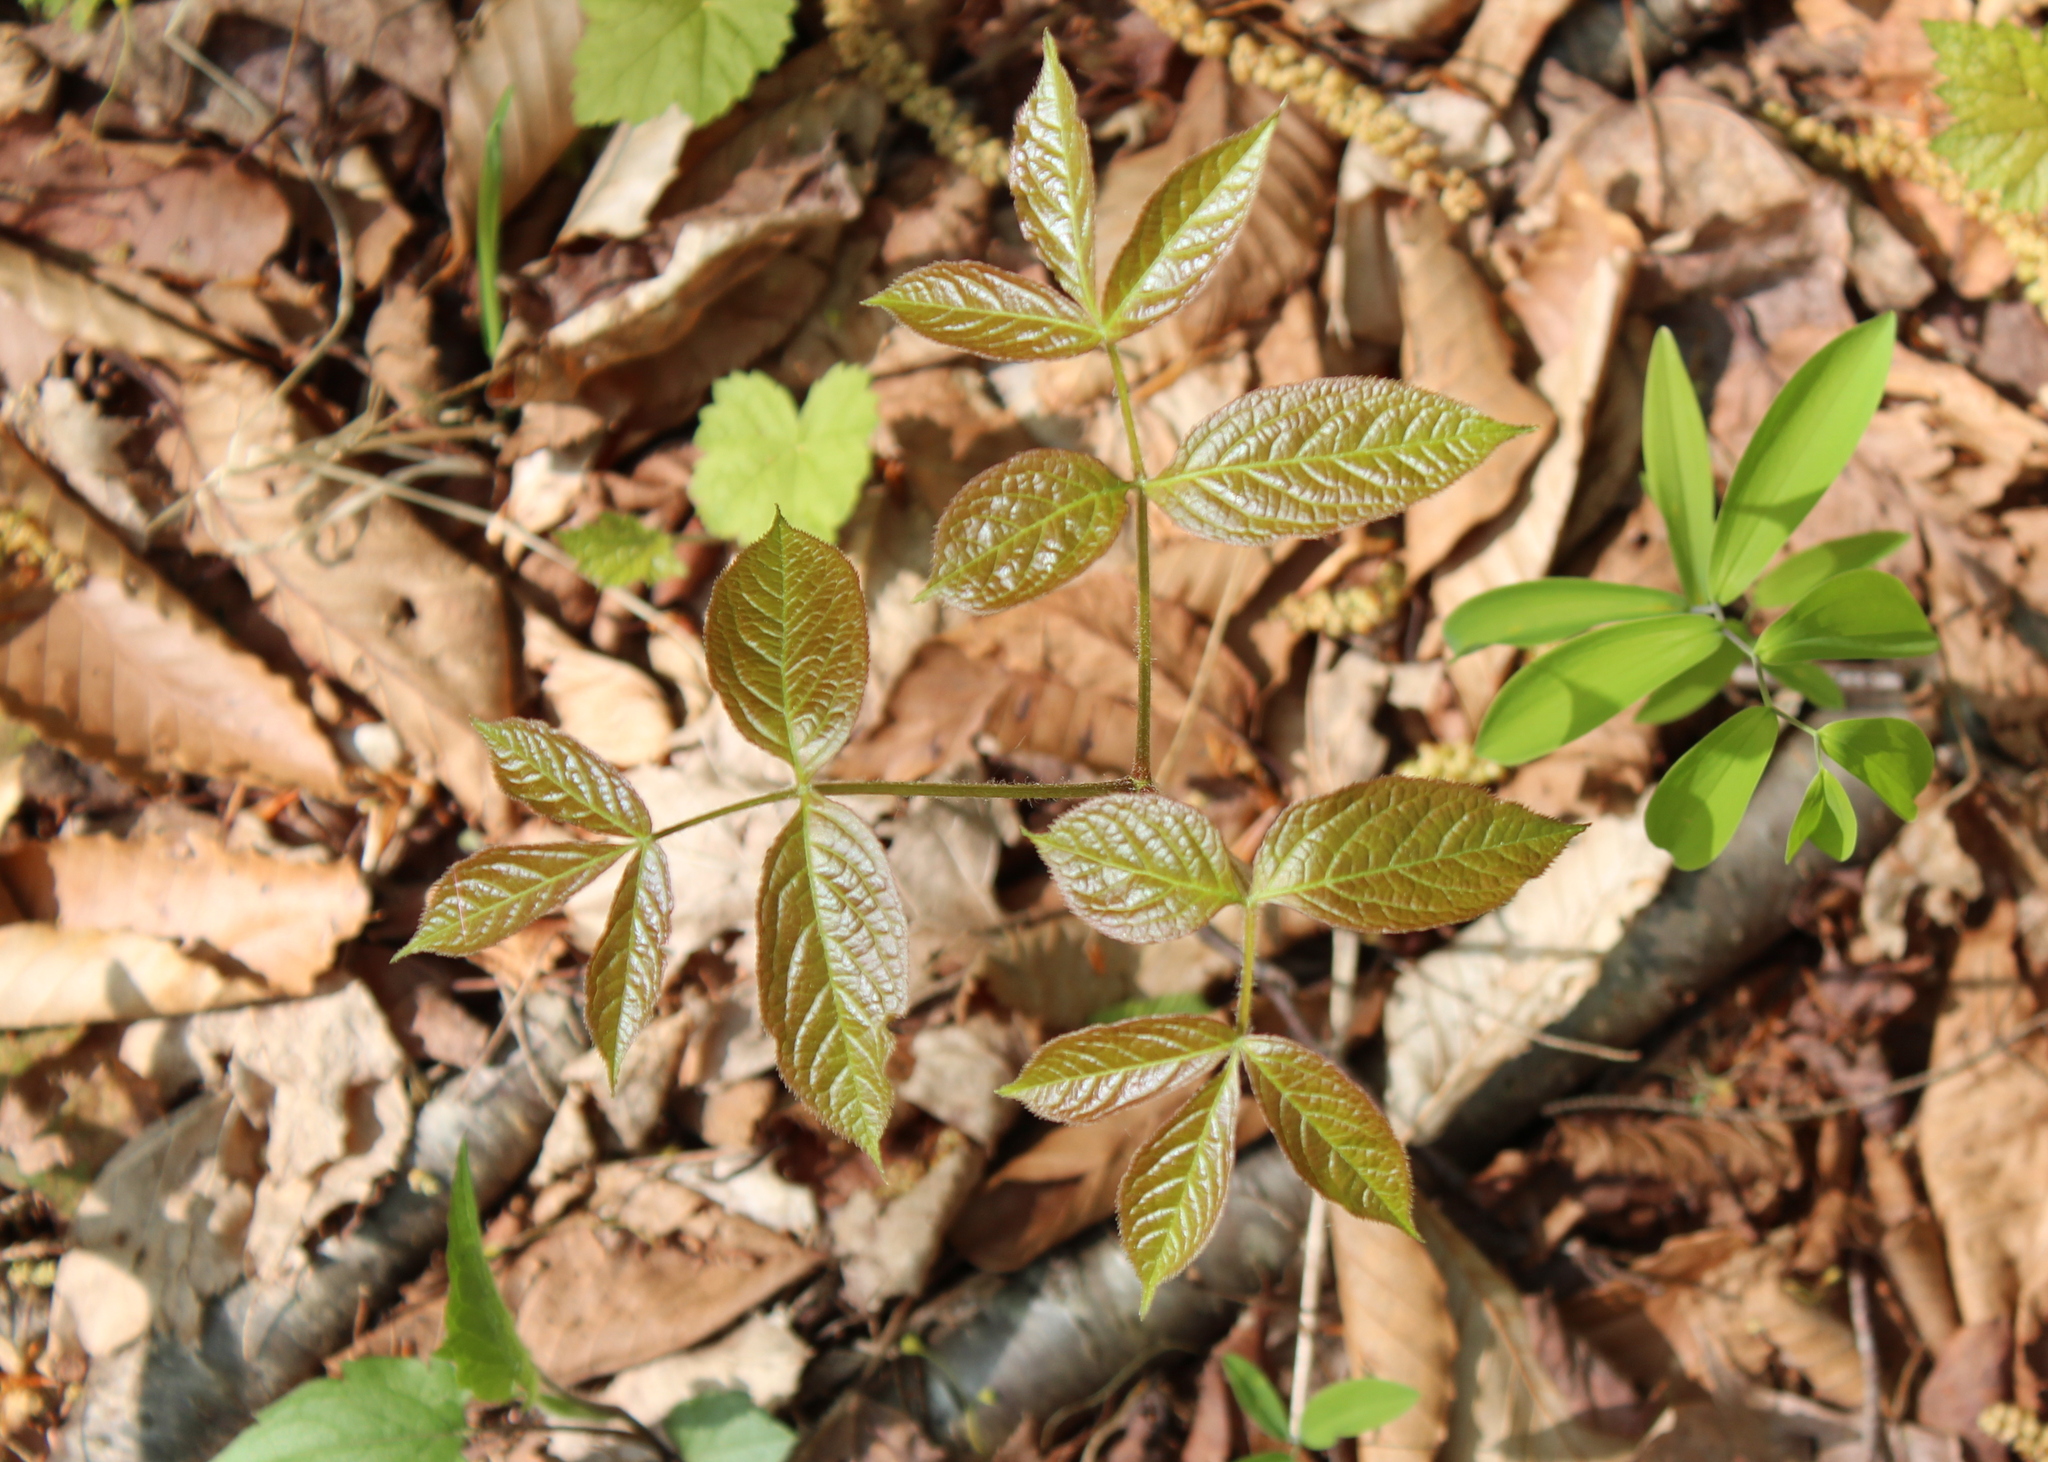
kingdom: Plantae
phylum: Tracheophyta
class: Magnoliopsida
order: Apiales
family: Araliaceae
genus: Aralia
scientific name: Aralia nudicaulis
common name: Wild sarsaparilla
